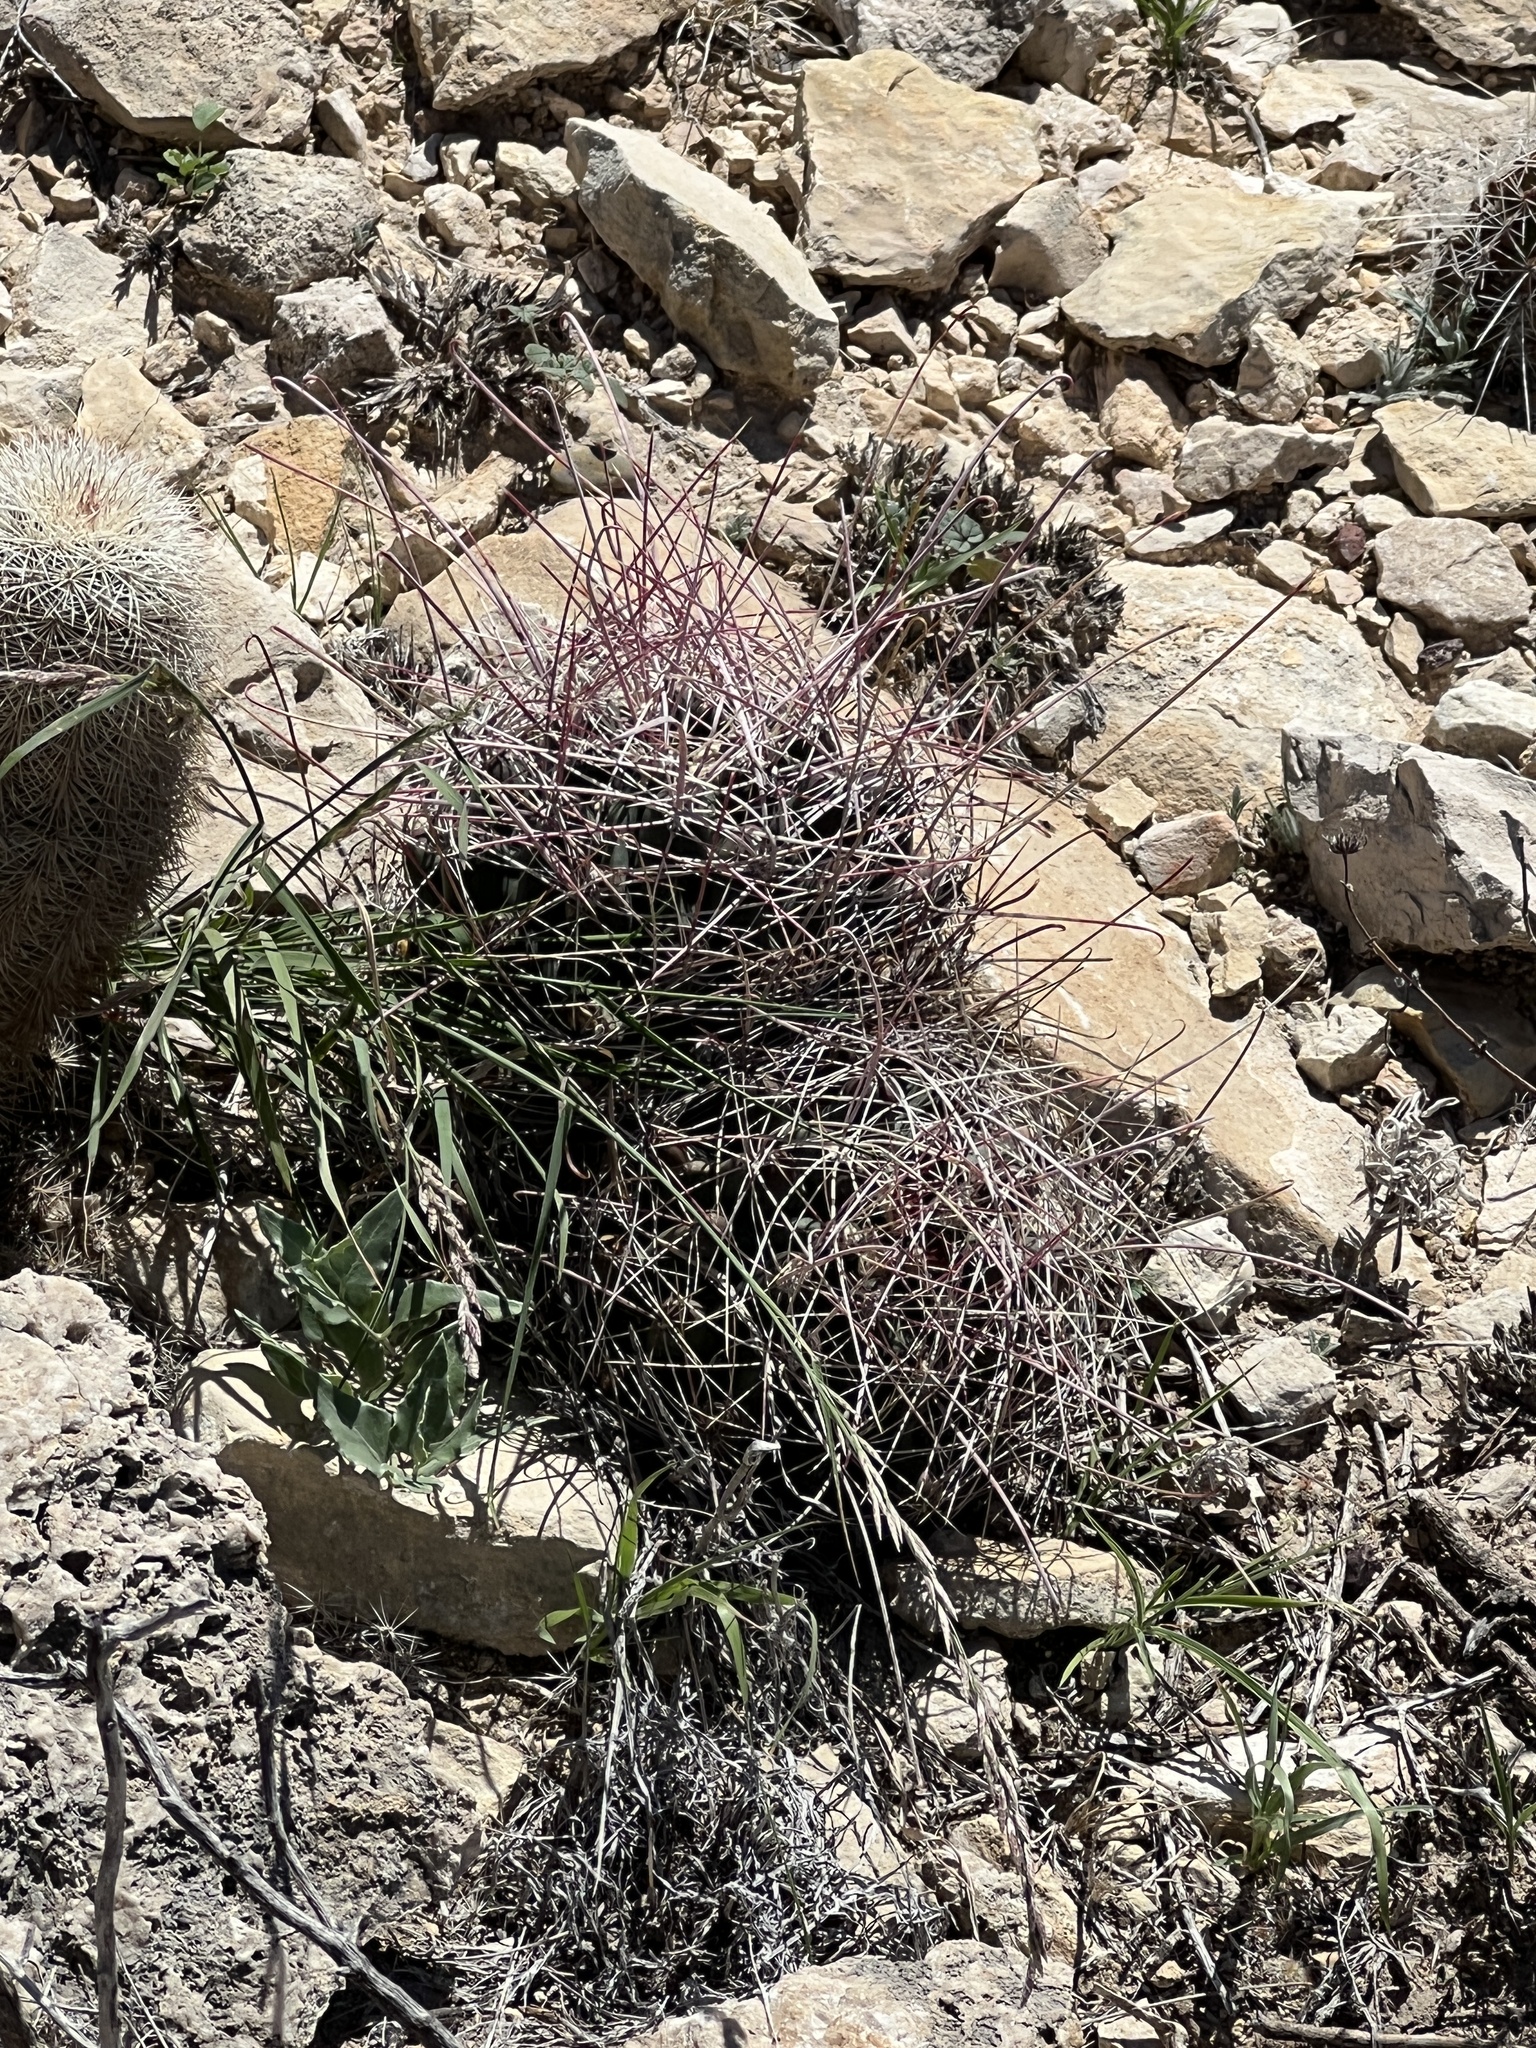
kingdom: Plantae
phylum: Tracheophyta
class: Magnoliopsida
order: Caryophyllales
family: Cactaceae
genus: Bisnaga
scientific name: Bisnaga hamatacantha
